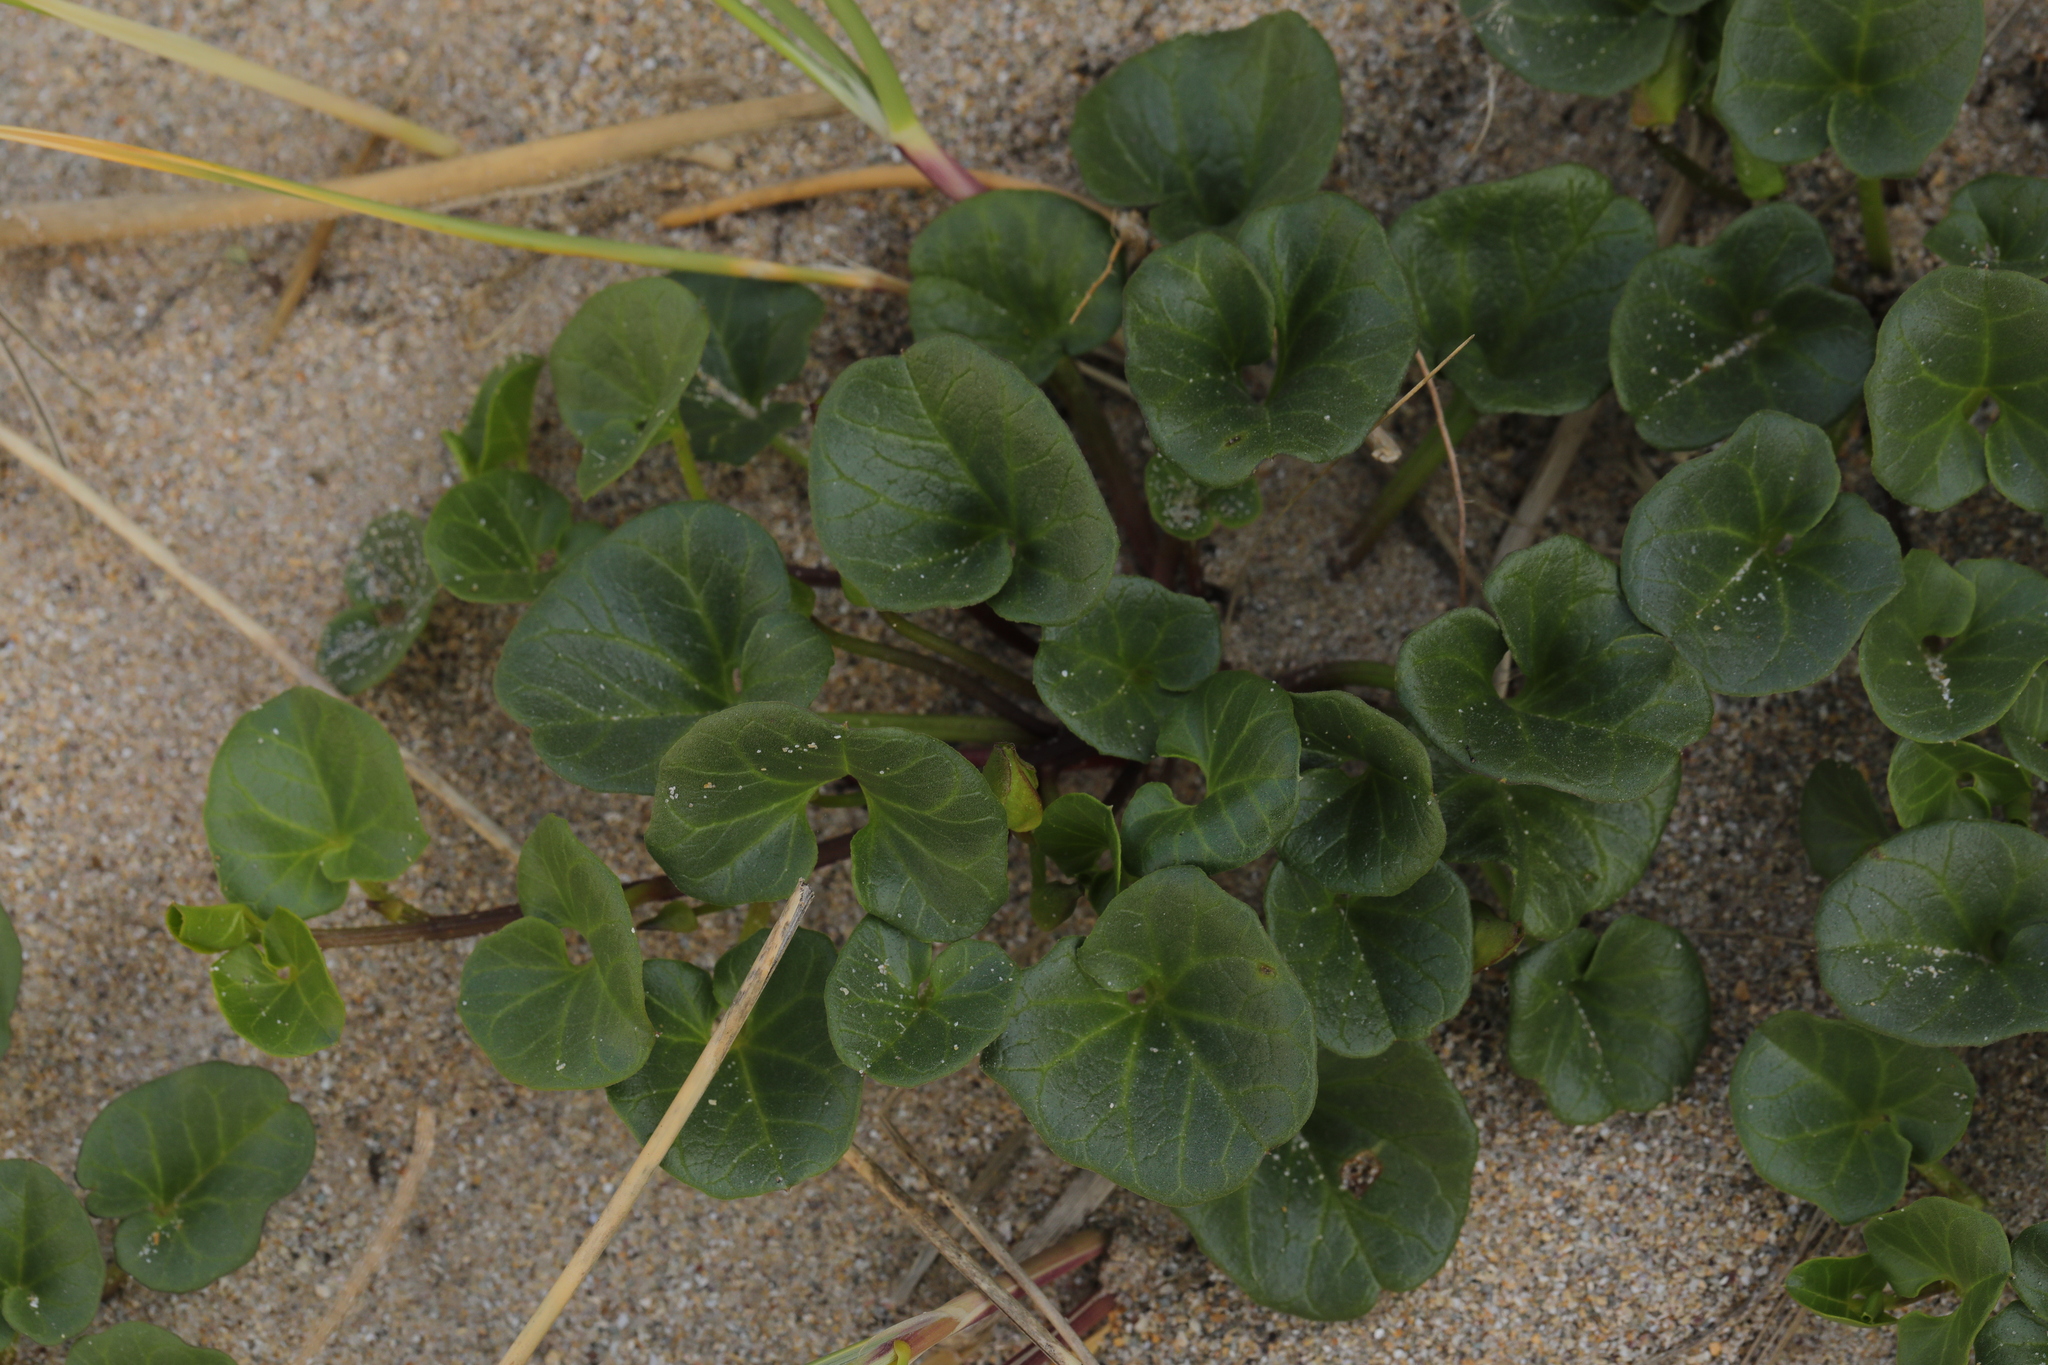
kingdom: Plantae
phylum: Tracheophyta
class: Magnoliopsida
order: Solanales
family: Convolvulaceae
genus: Calystegia
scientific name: Calystegia soldanella
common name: Sea bindweed
